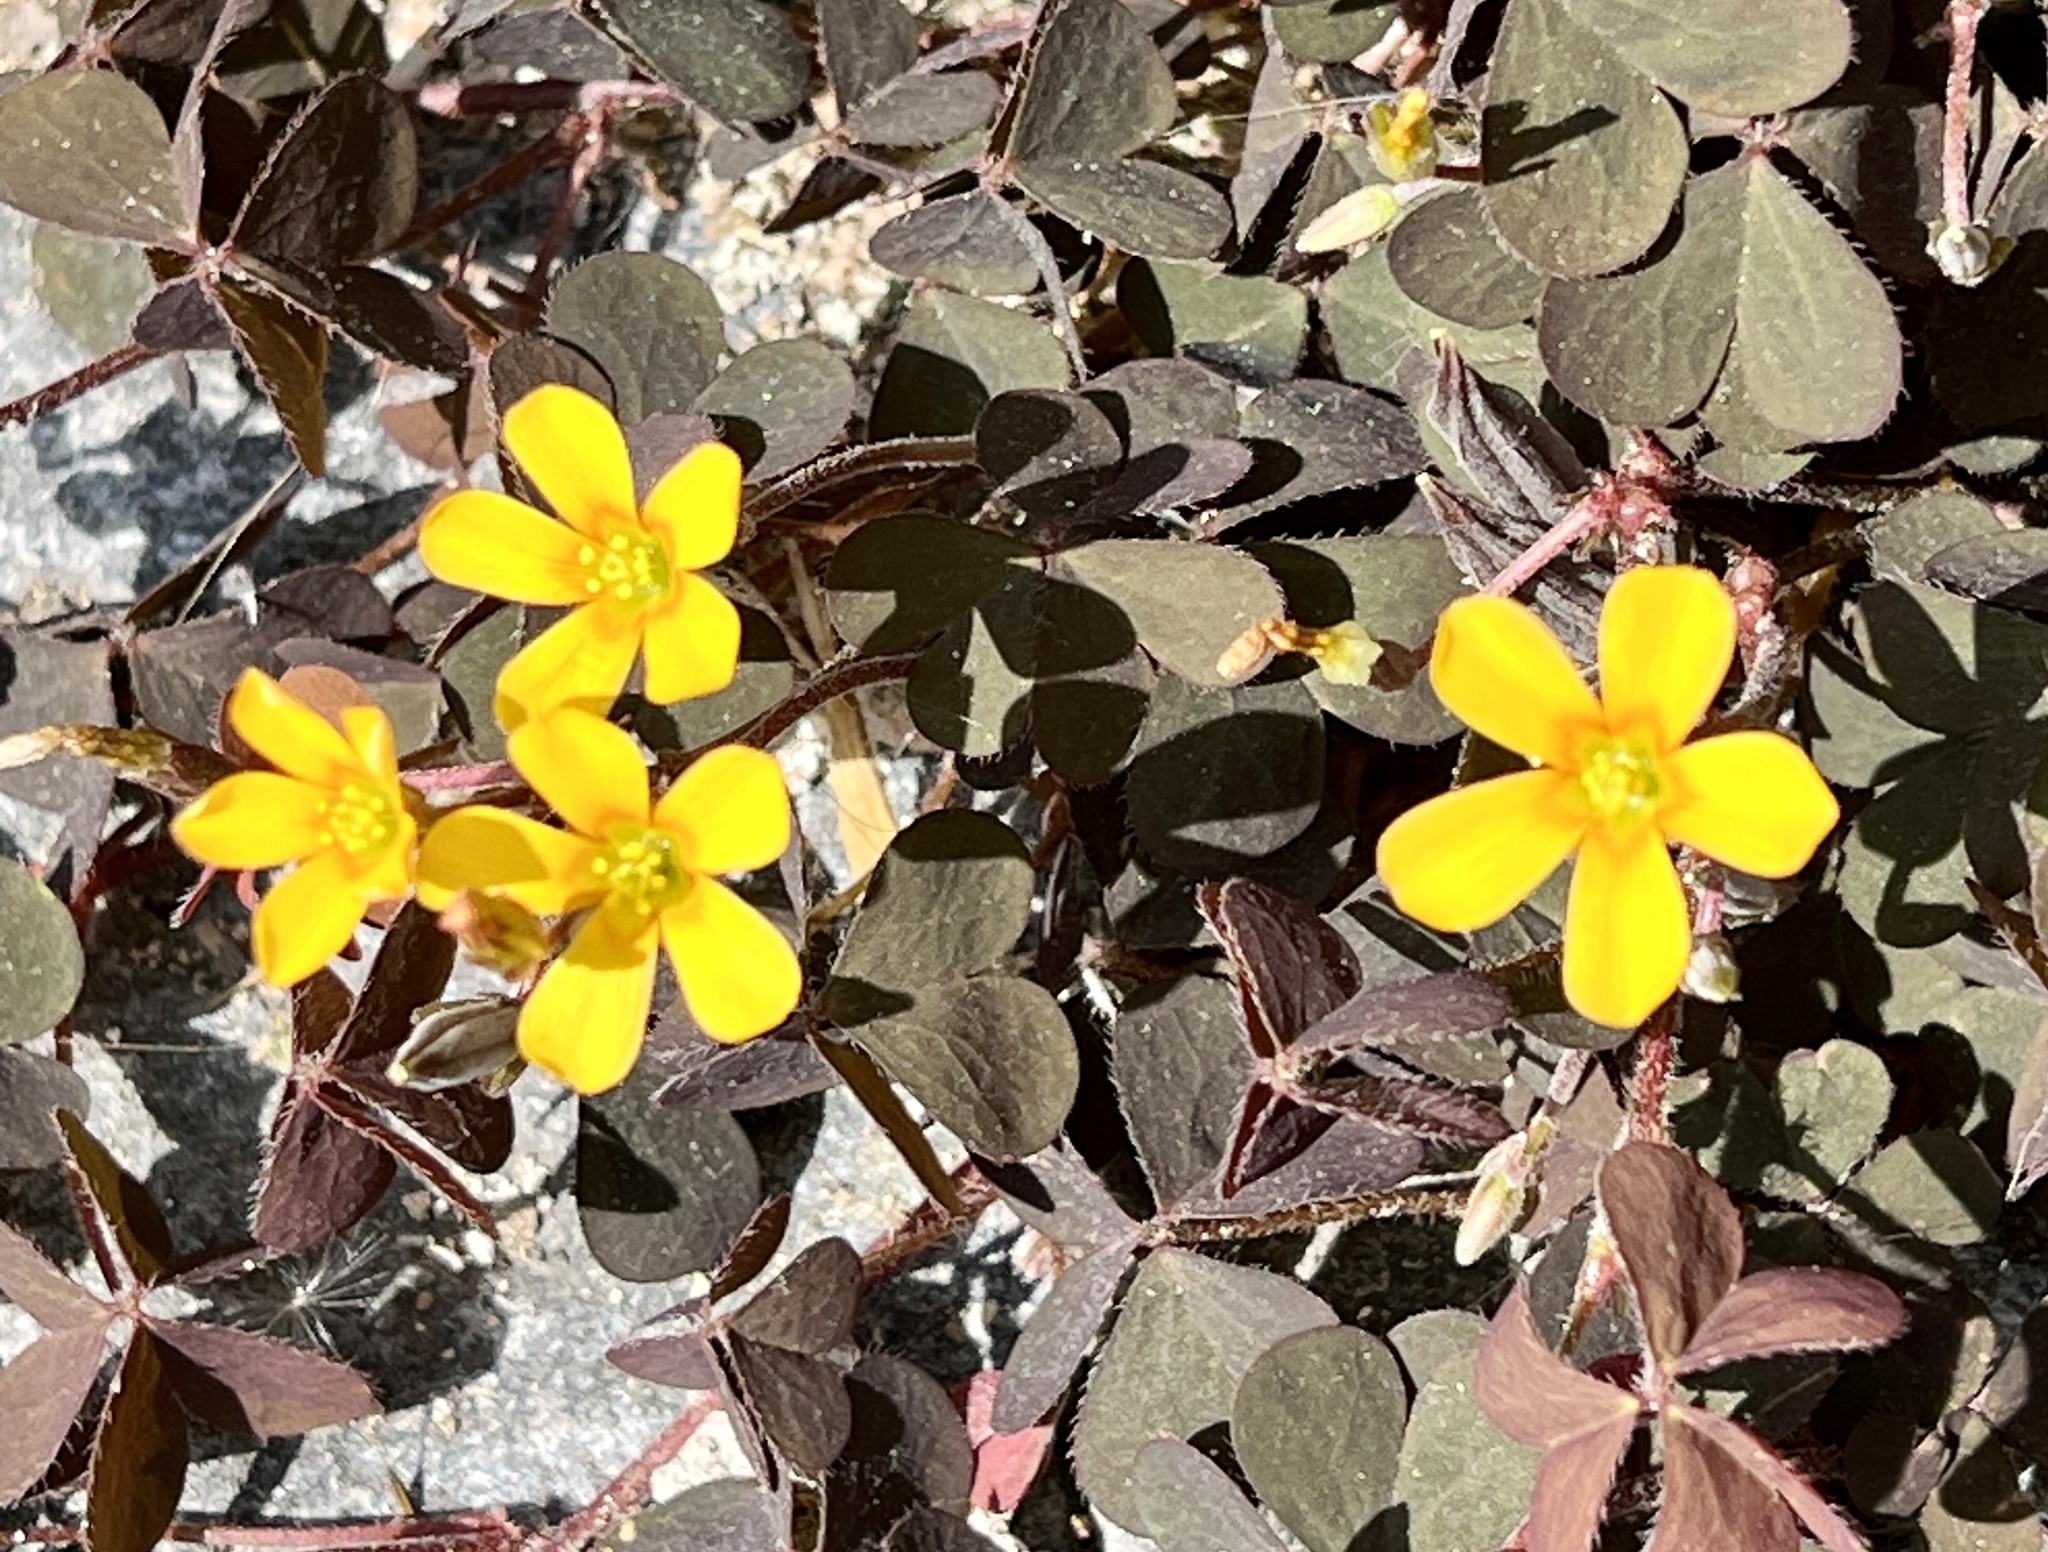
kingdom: Plantae
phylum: Tracheophyta
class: Magnoliopsida
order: Oxalidales
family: Oxalidaceae
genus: Oxalis
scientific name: Oxalis corniculata
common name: Procumbent yellow-sorrel
